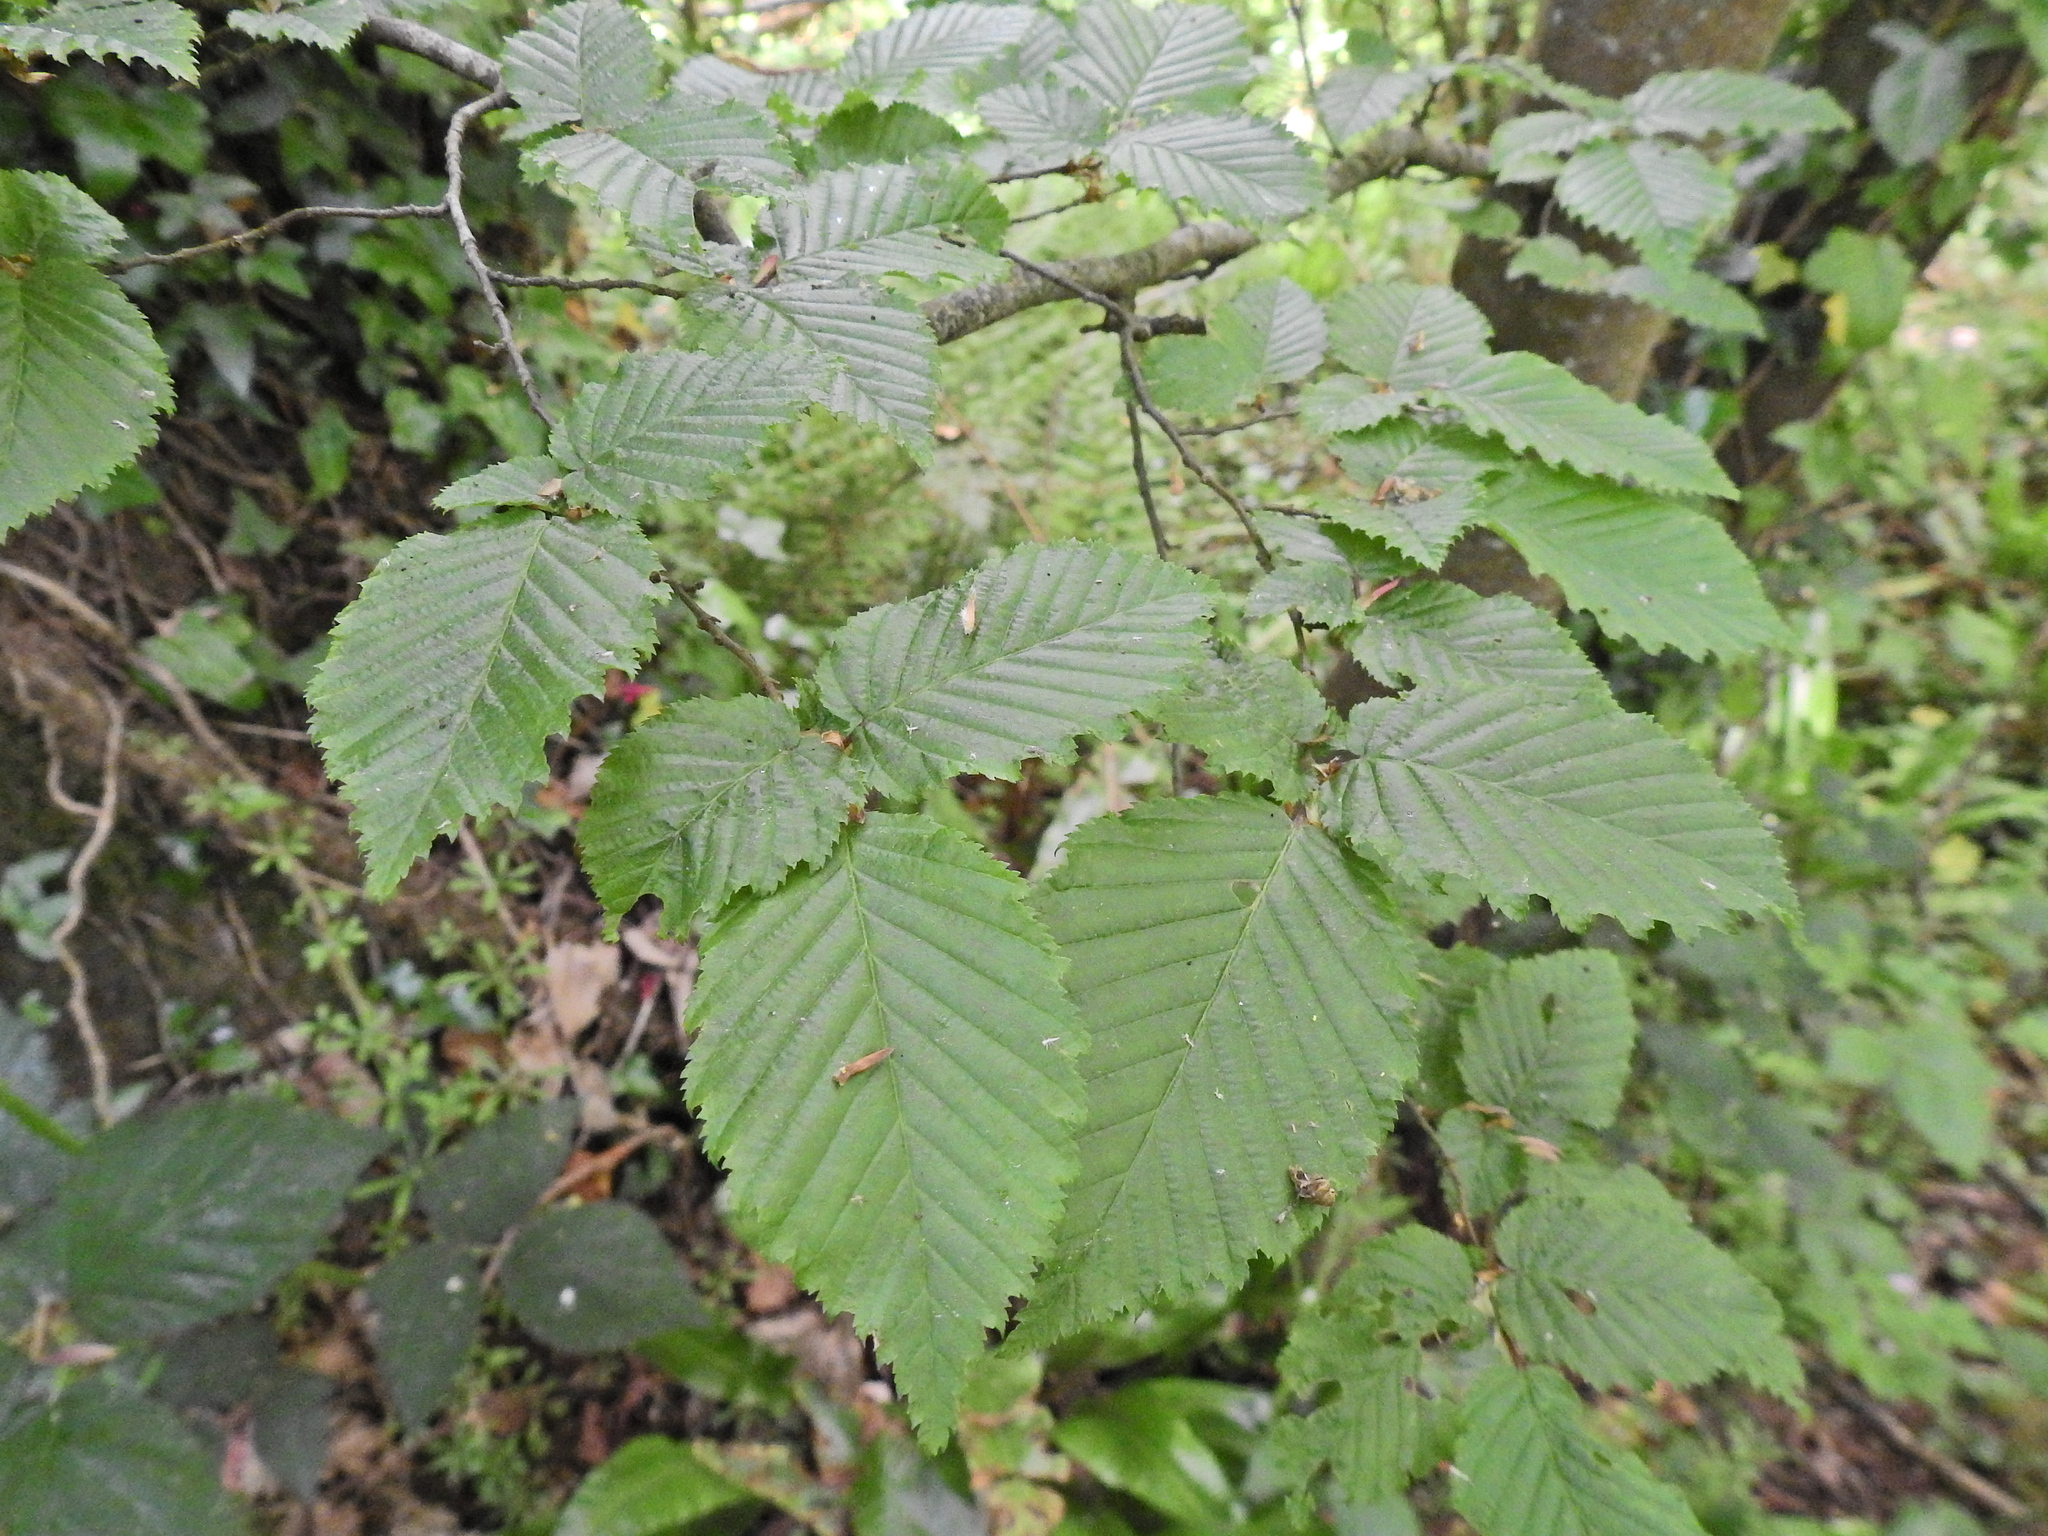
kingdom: Plantae
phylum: Tracheophyta
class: Magnoliopsida
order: Fagales
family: Betulaceae
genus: Carpinus
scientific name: Carpinus betulus
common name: Hornbeam
